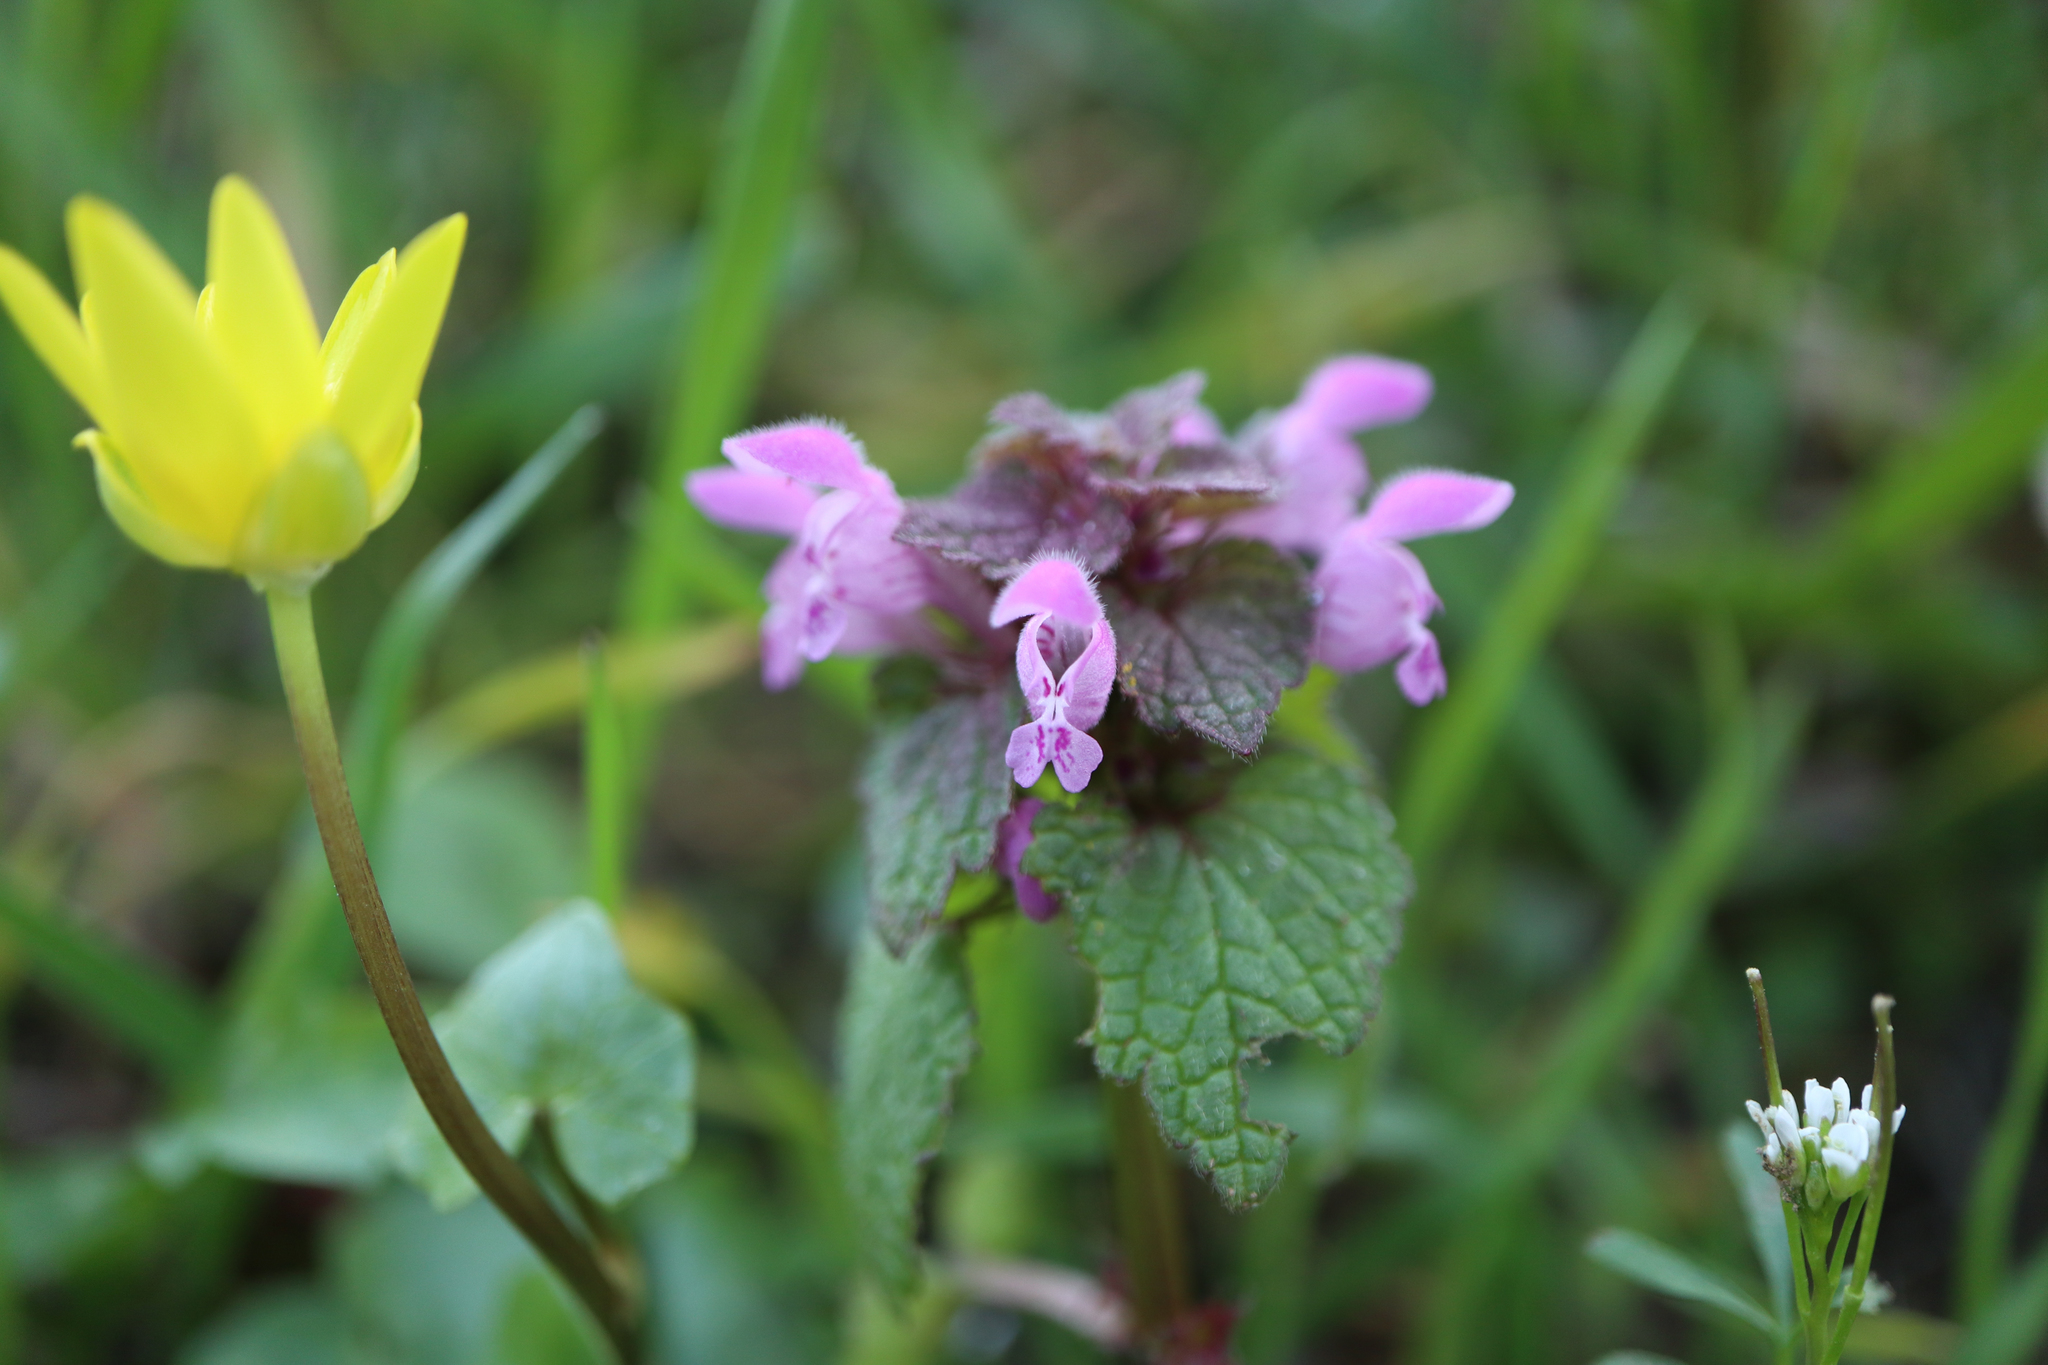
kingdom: Plantae
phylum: Tracheophyta
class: Magnoliopsida
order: Lamiales
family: Lamiaceae
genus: Lamium
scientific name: Lamium purpureum
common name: Red dead-nettle
